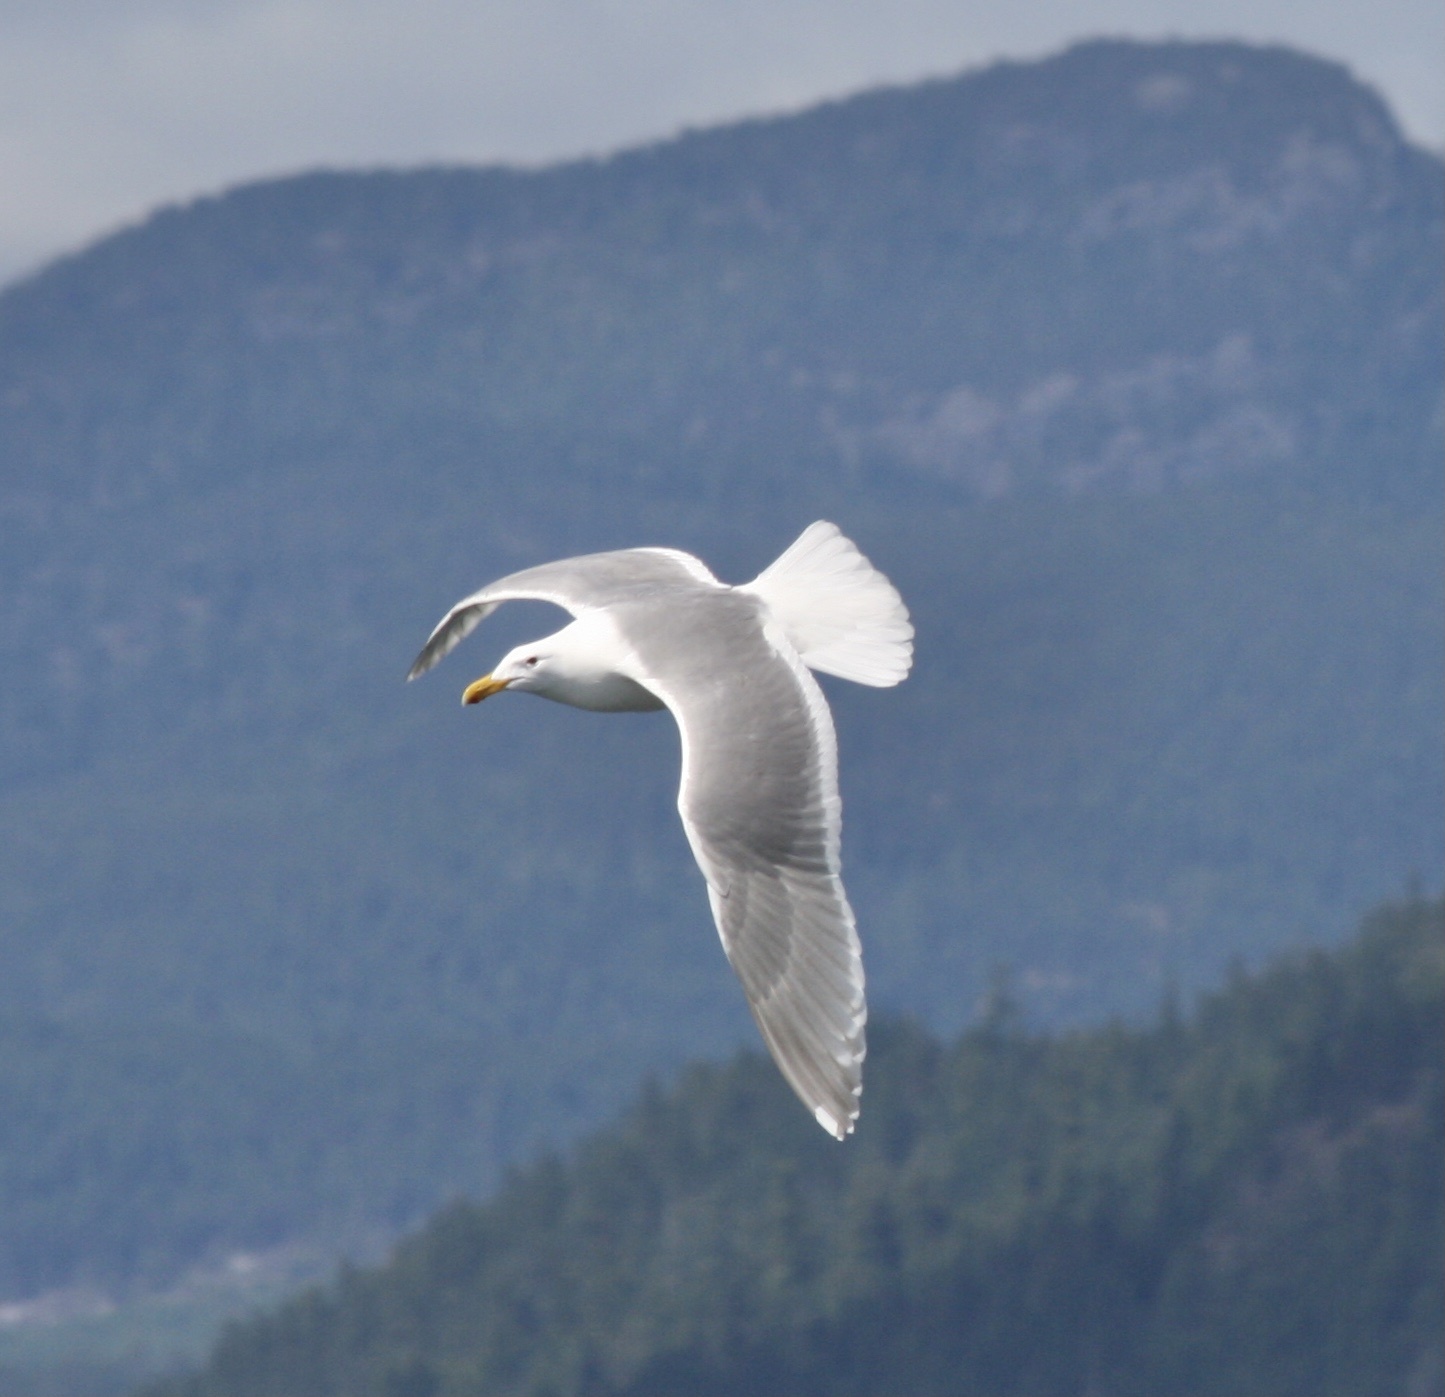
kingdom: Animalia
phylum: Chordata
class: Aves
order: Charadriiformes
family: Laridae
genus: Larus
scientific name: Larus glaucescens
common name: Glaucous-winged gull
